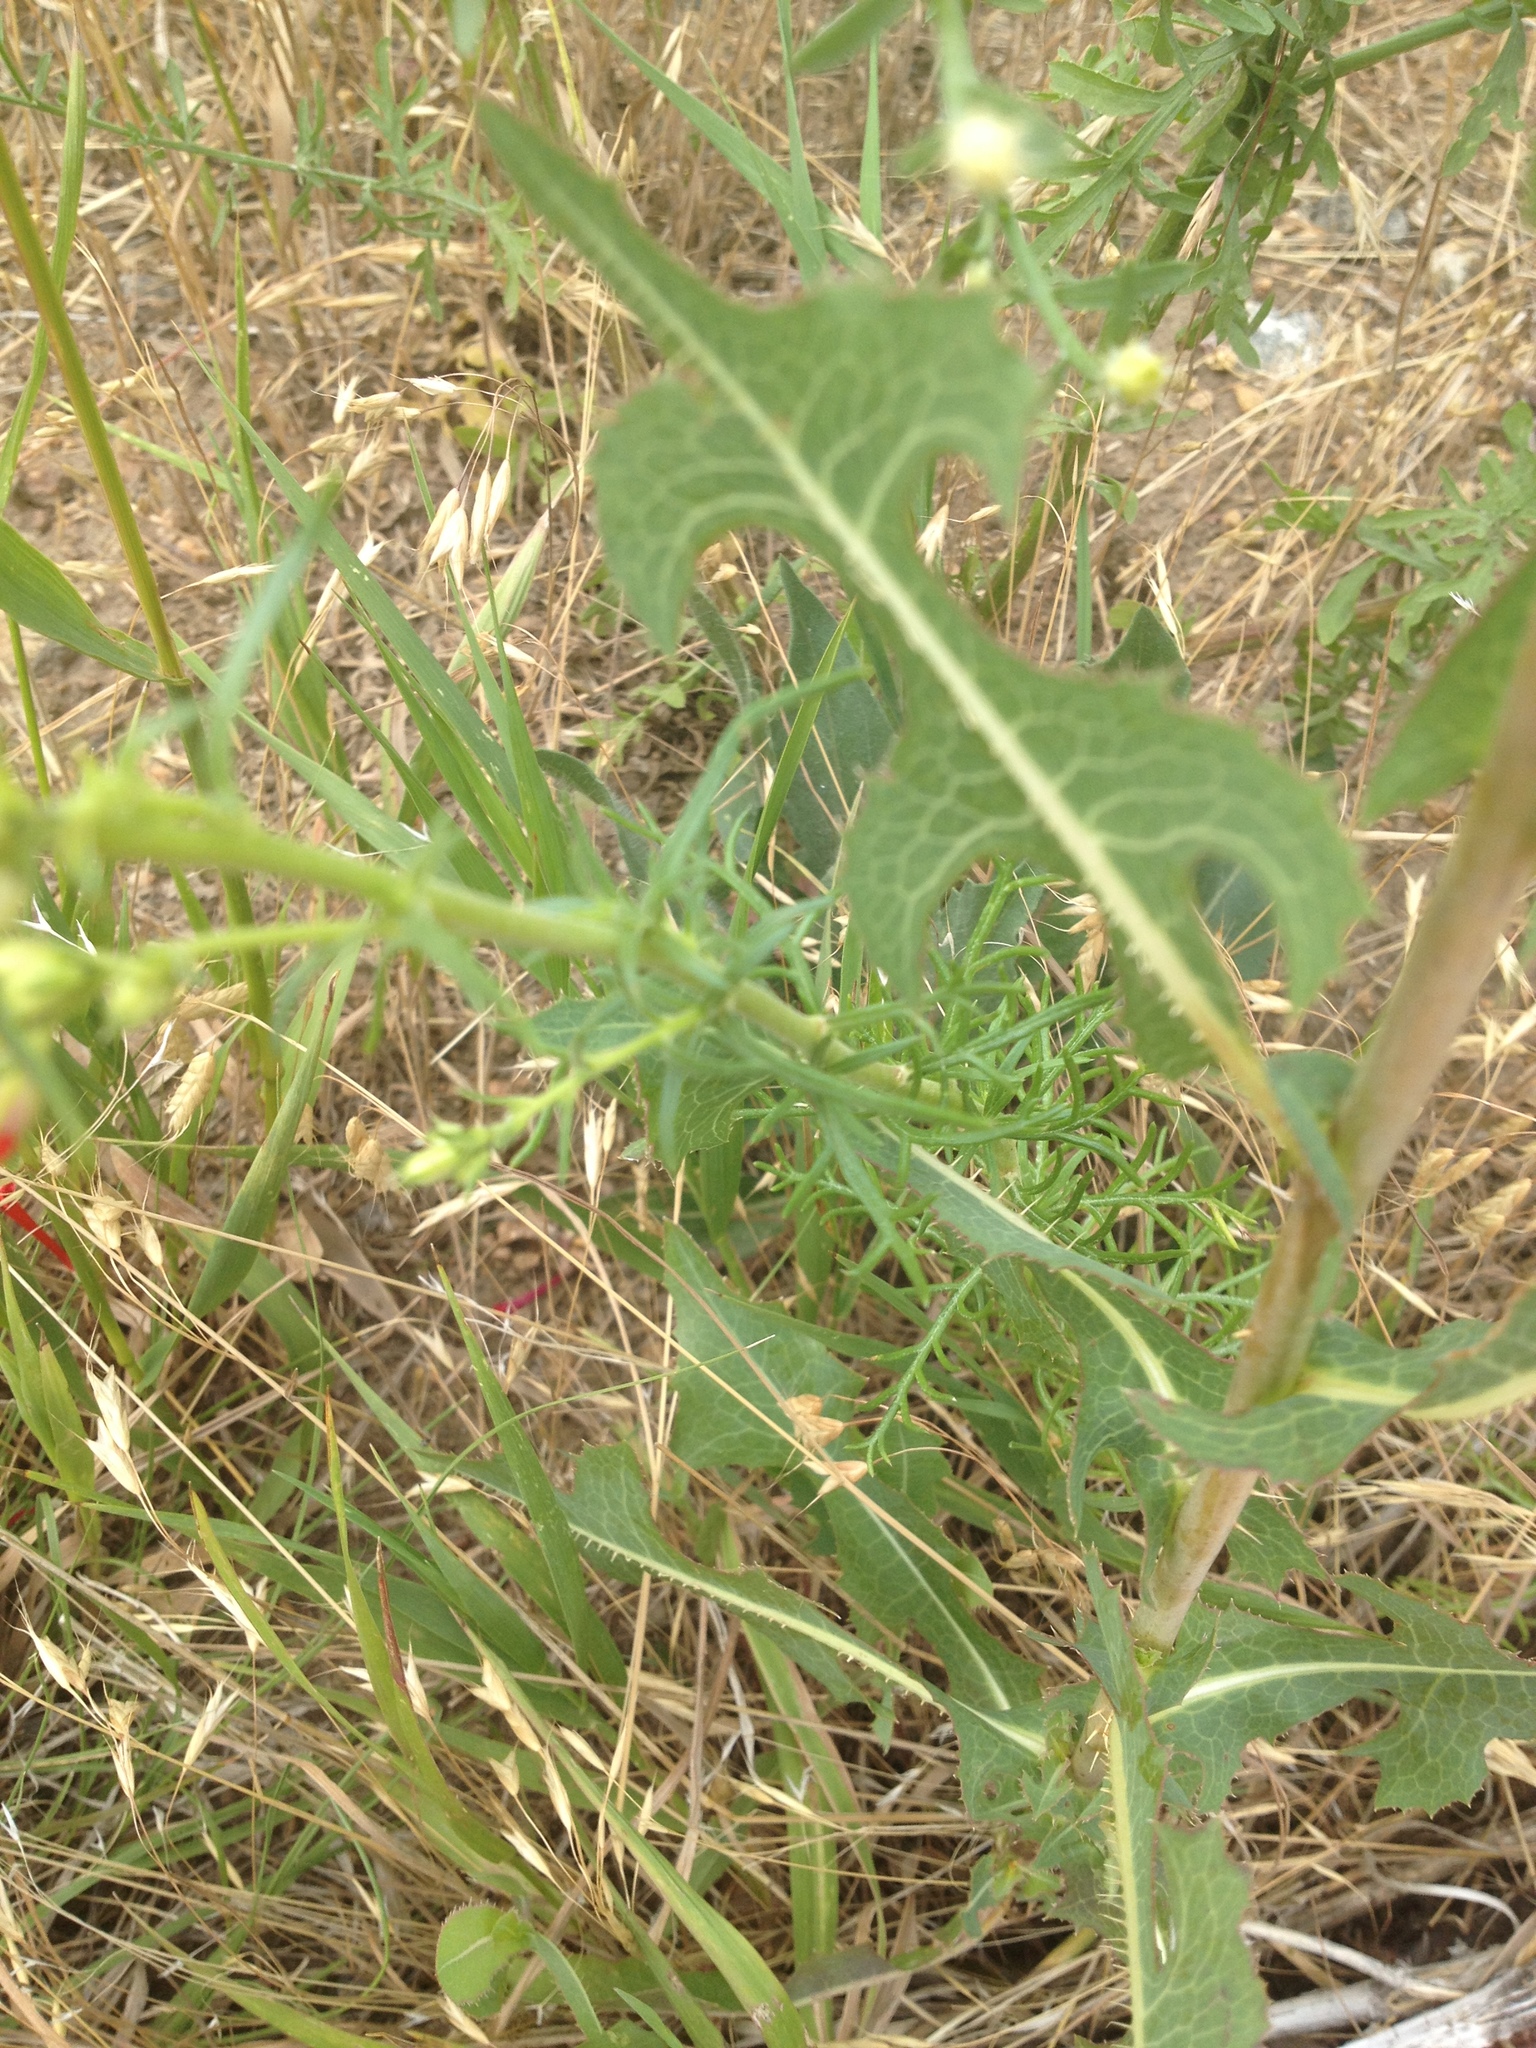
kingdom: Plantae
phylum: Tracheophyta
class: Magnoliopsida
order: Ericales
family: Polemoniaceae
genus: Ipomopsis
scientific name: Ipomopsis aggregata
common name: Scarlet gilia
